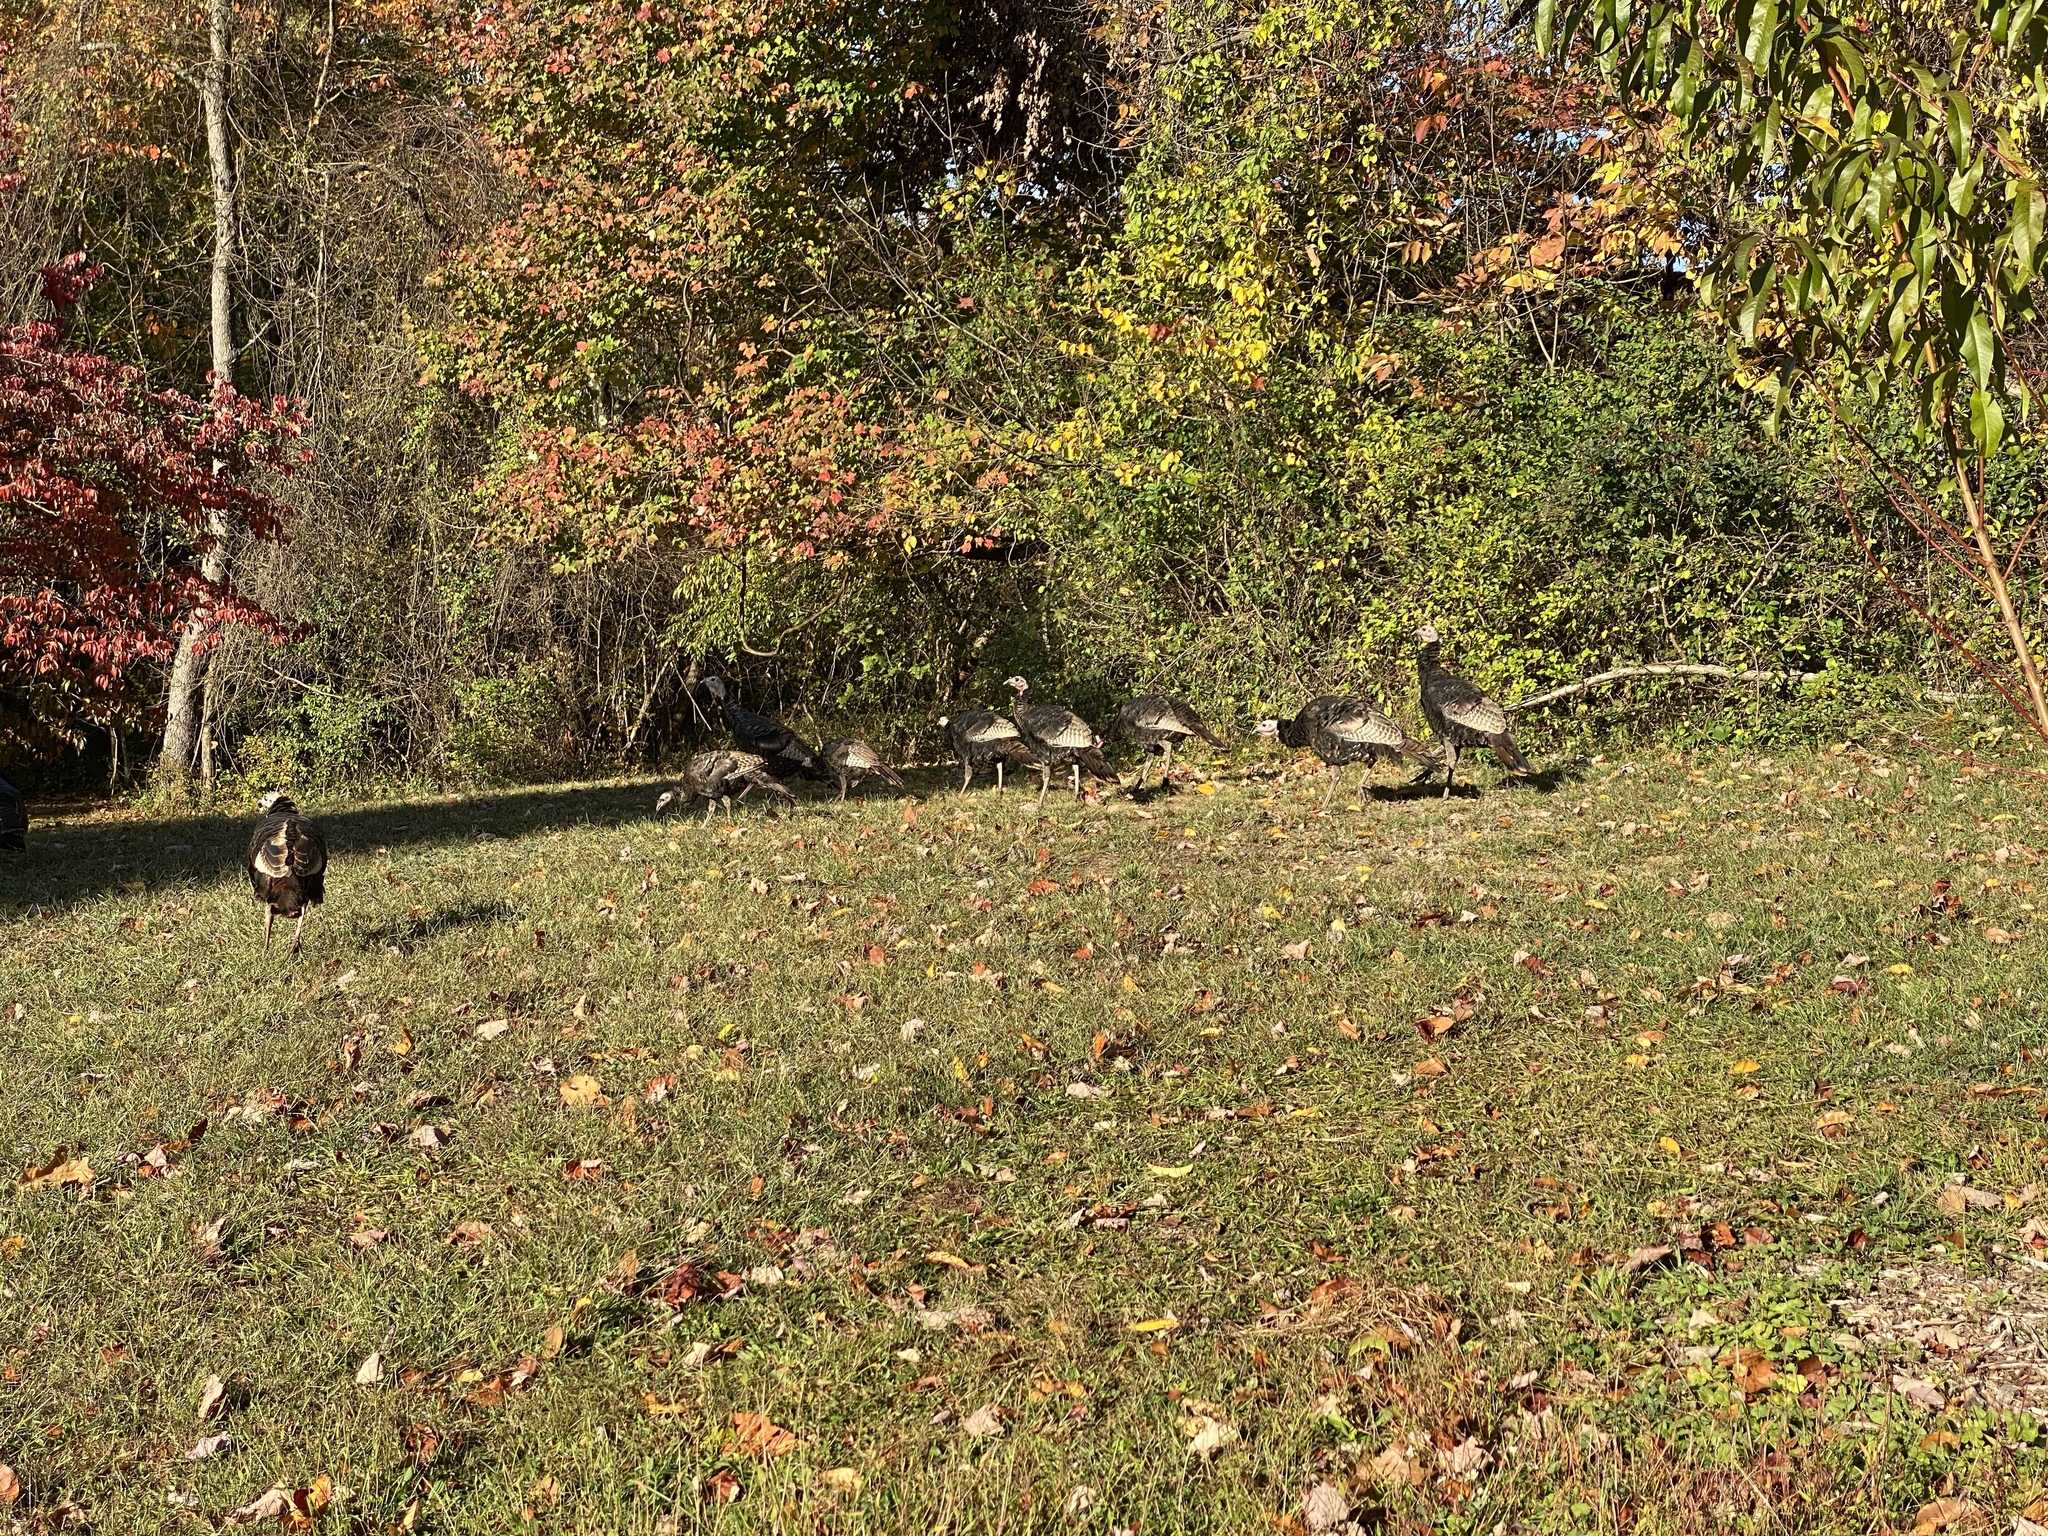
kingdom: Animalia
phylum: Chordata
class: Aves
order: Galliformes
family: Phasianidae
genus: Meleagris
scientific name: Meleagris gallopavo
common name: Wild turkey
